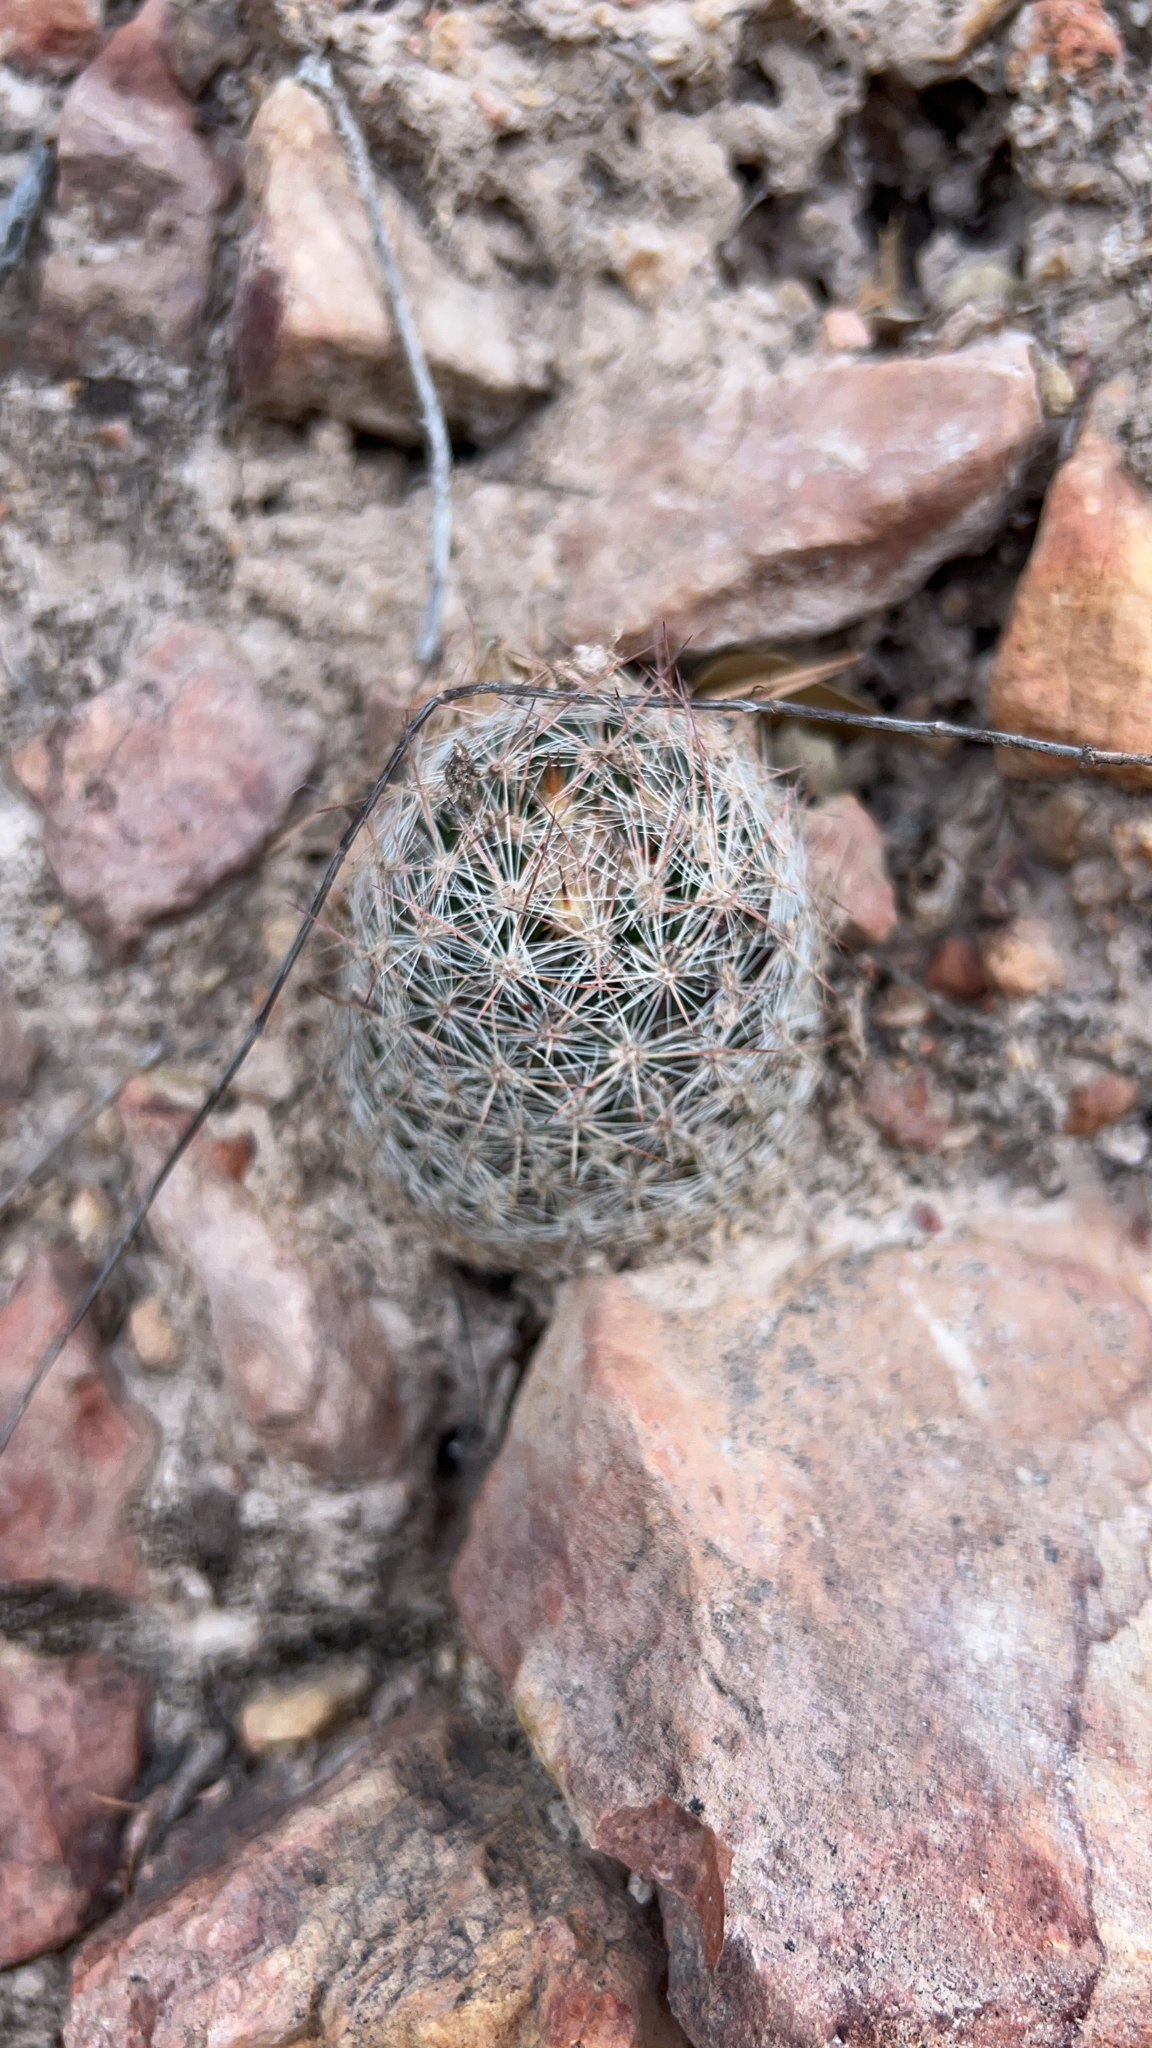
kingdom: Plantae
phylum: Tracheophyta
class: Magnoliopsida
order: Caryophyllales
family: Cactaceae
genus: Pelecyphora
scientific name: Pelecyphora vivipara
